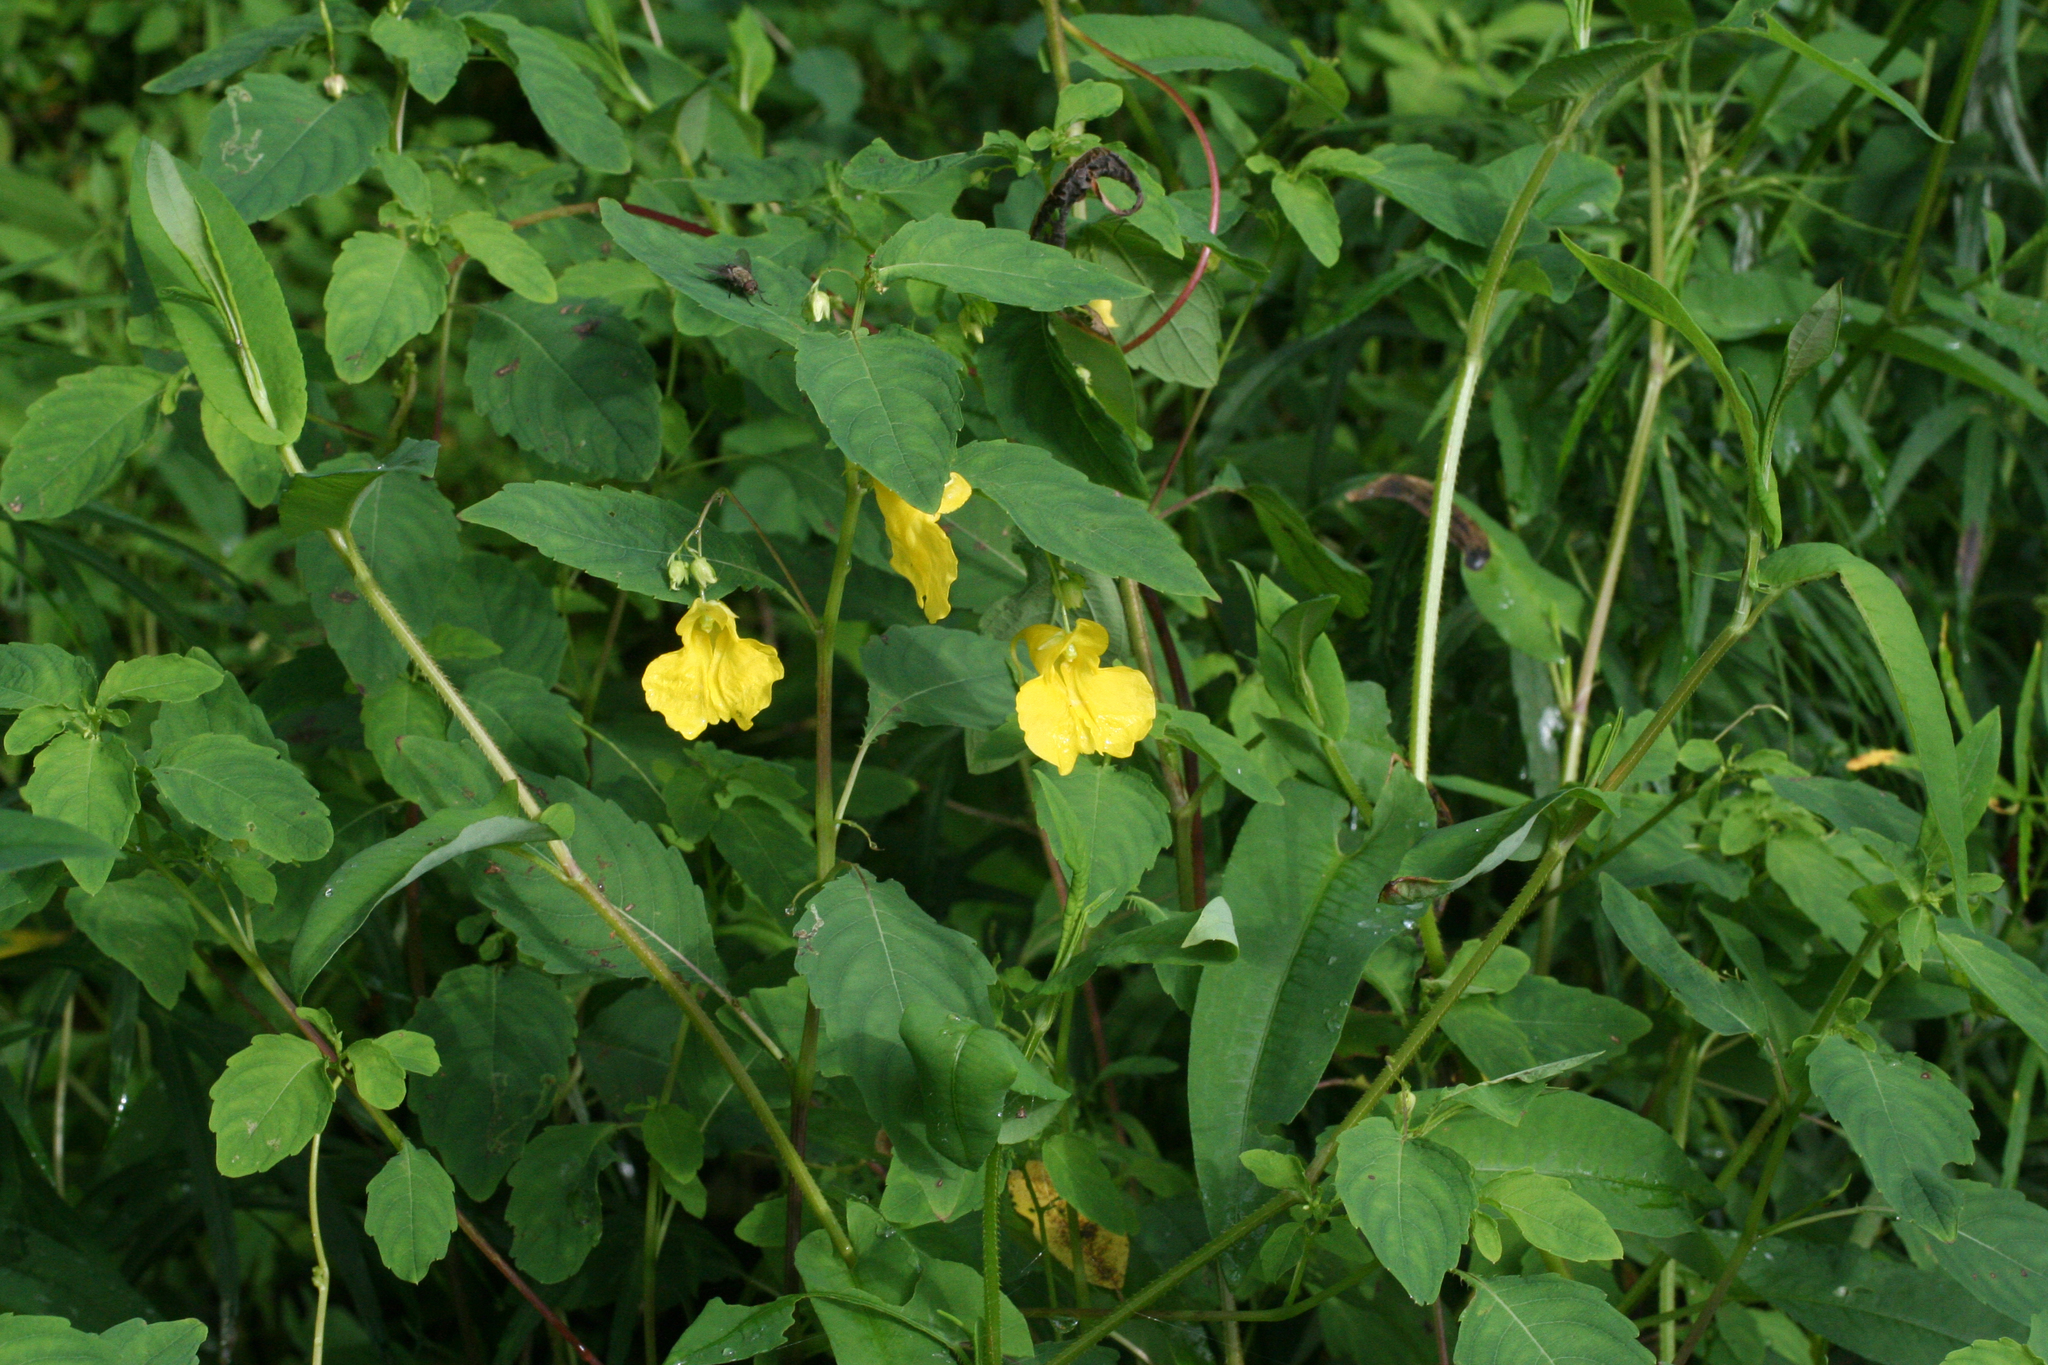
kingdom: Plantae
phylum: Tracheophyta
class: Magnoliopsida
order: Ericales
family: Balsaminaceae
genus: Impatiens
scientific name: Impatiens noli-tangere
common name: Touch-me-not balsam
